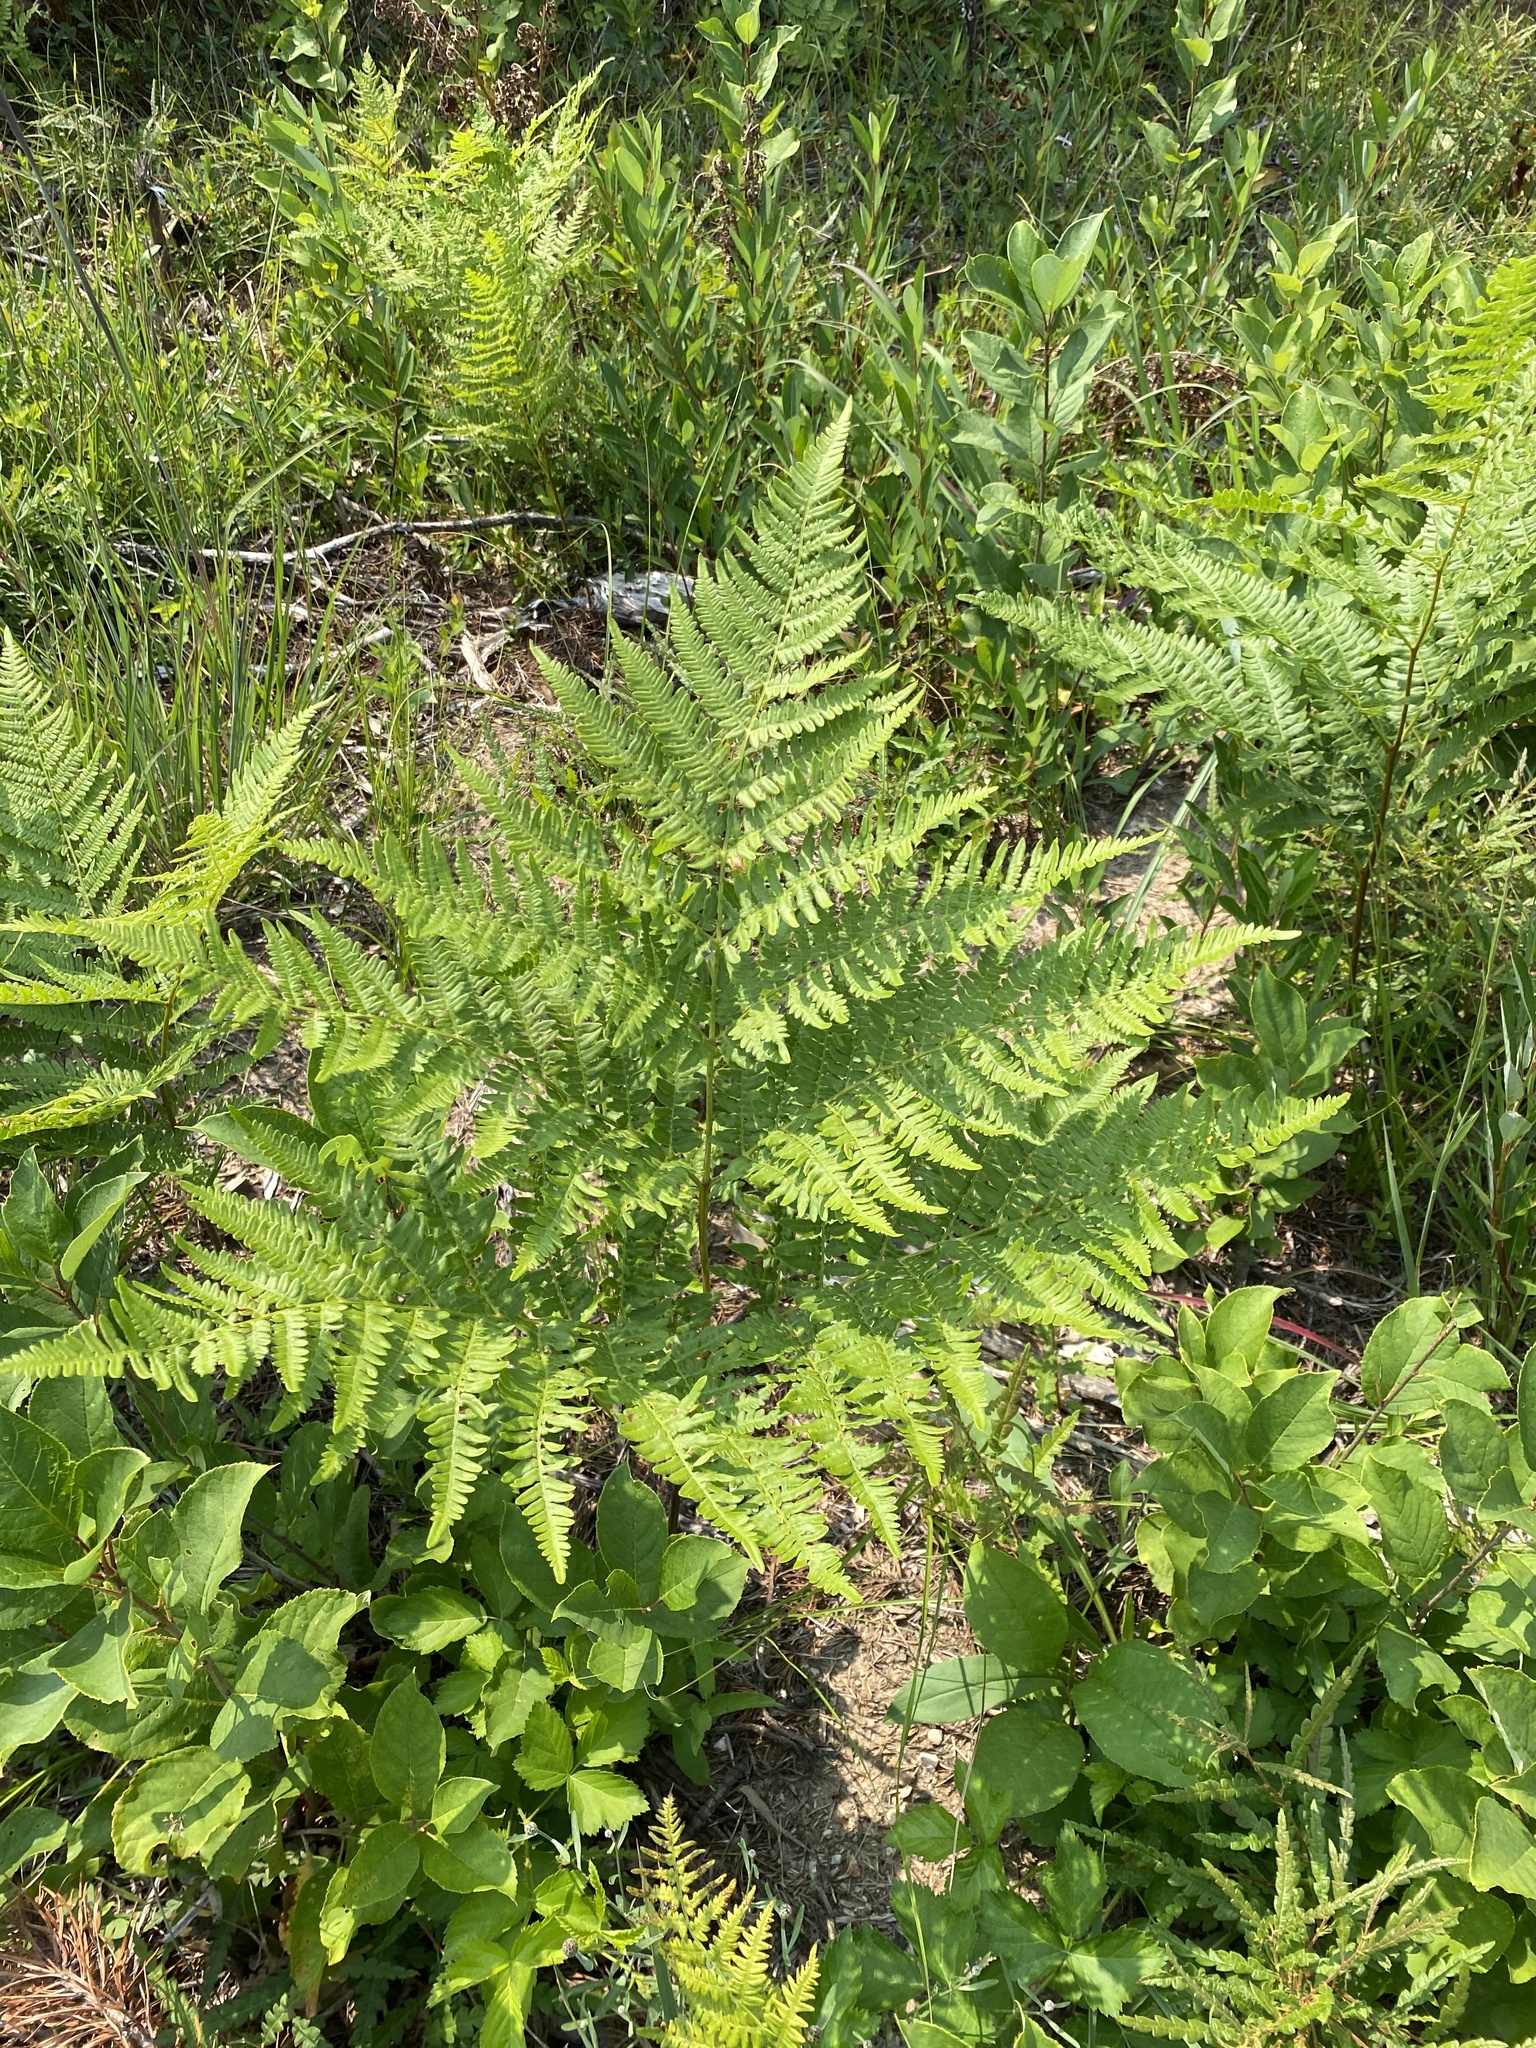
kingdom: Plantae
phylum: Tracheophyta
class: Polypodiopsida
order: Polypodiales
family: Dennstaedtiaceae
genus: Pteridium
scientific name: Pteridium aquilinum
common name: Bracken
